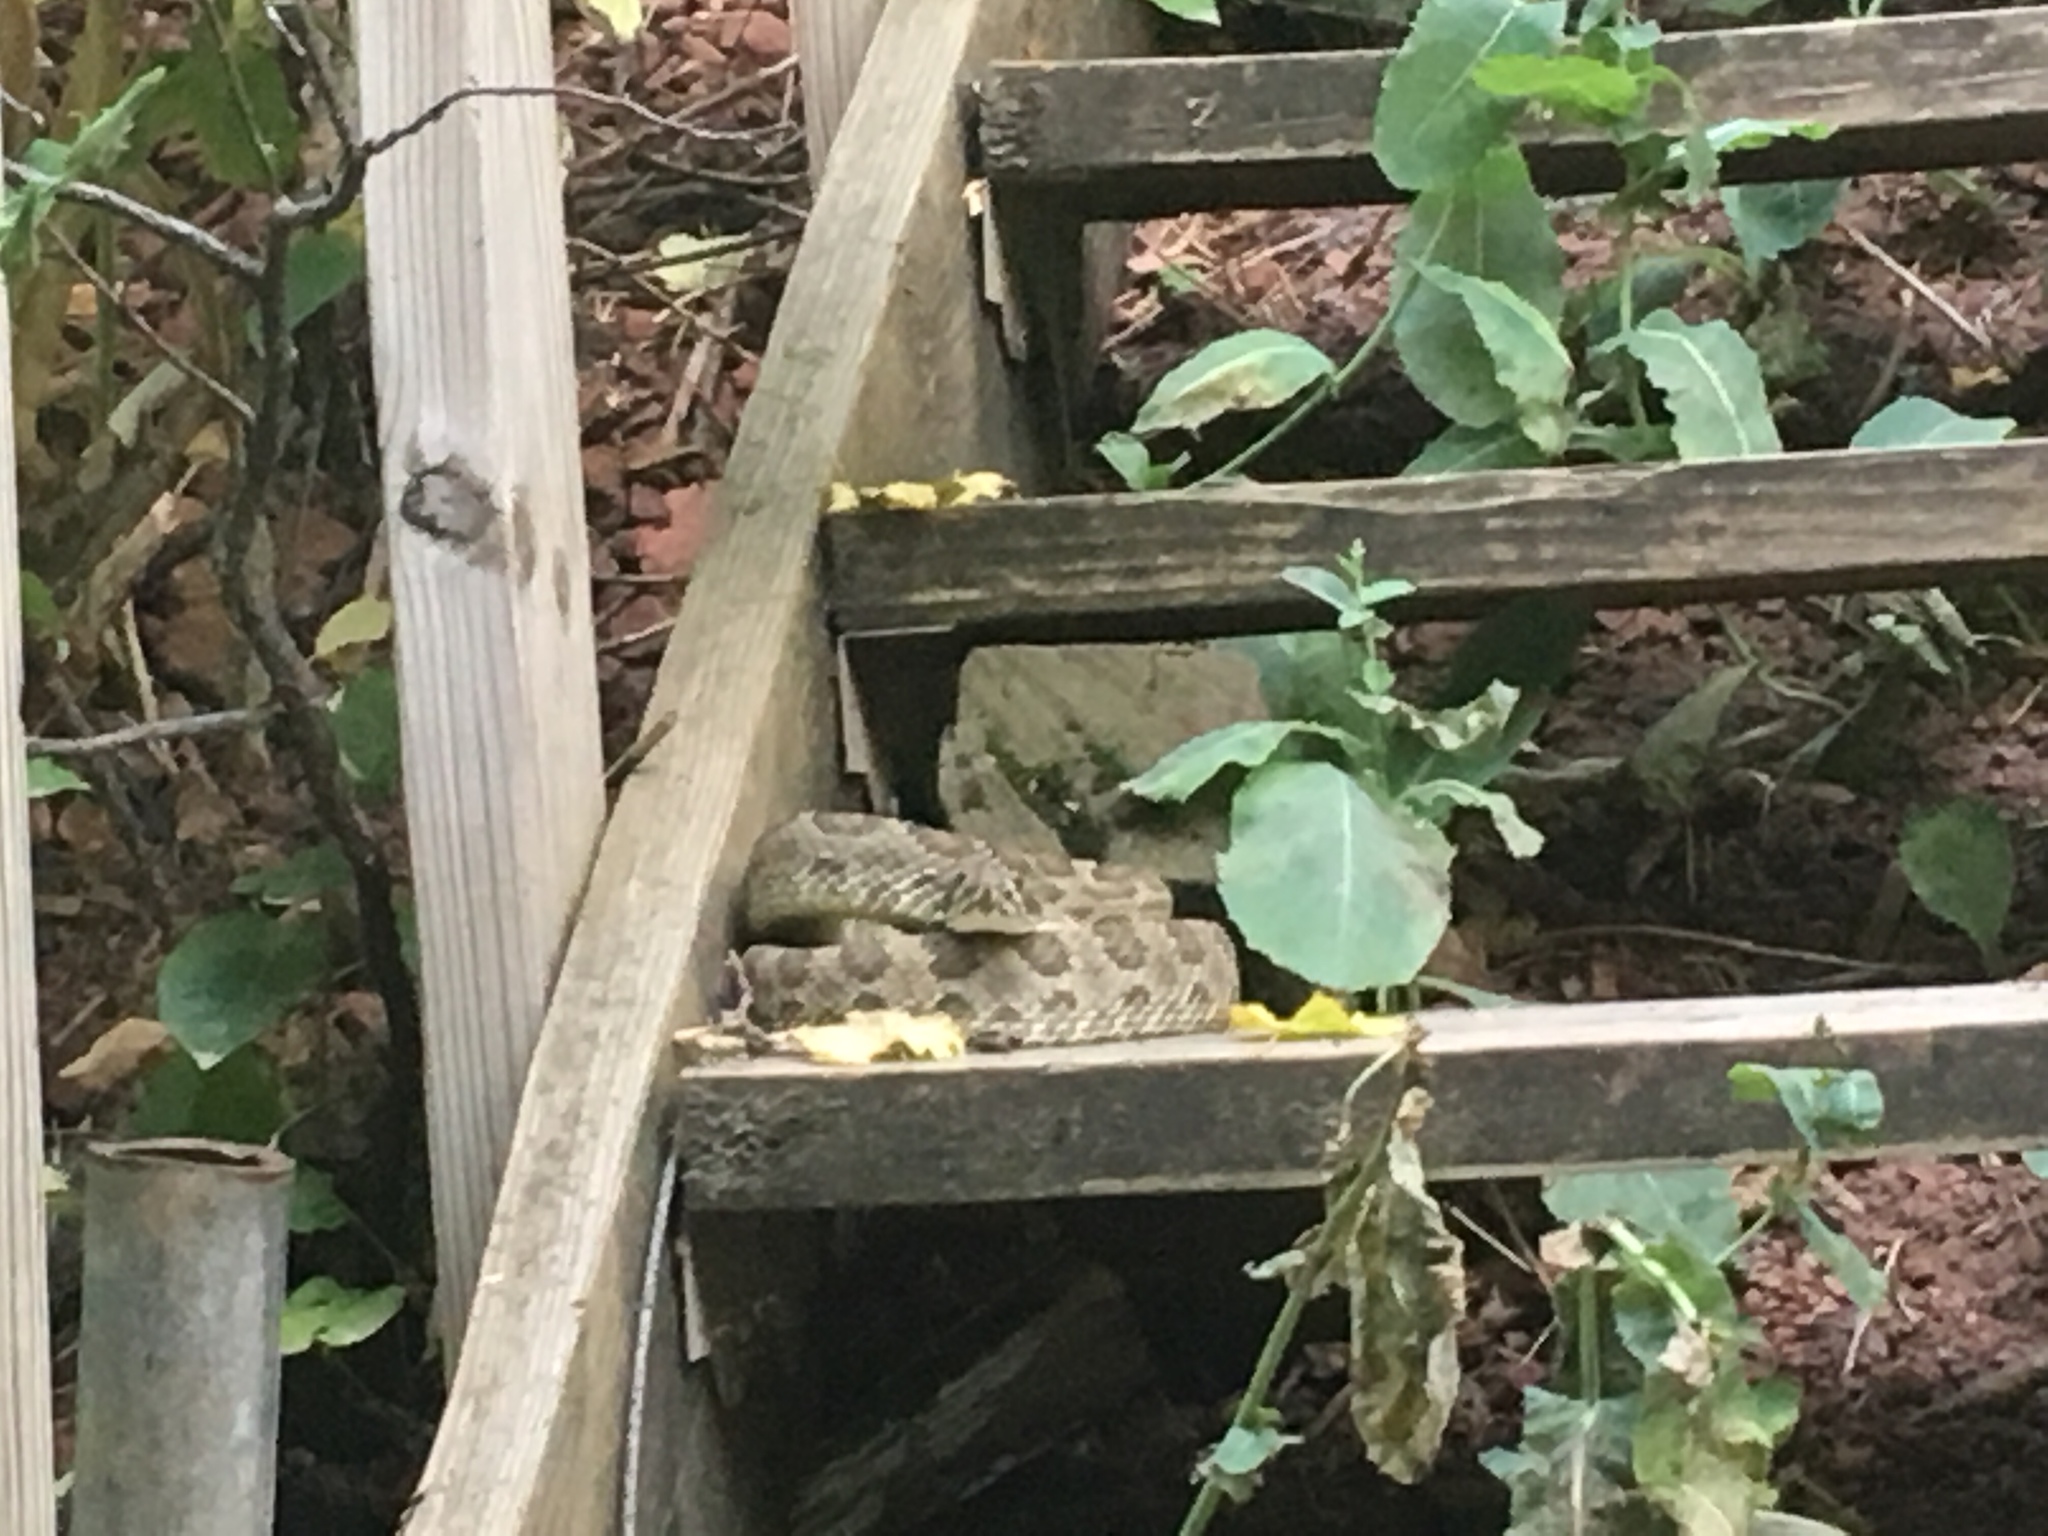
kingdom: Animalia
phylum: Chordata
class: Squamata
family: Viperidae
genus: Crotalus
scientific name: Crotalus viridis
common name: Prairie rattlesnake
